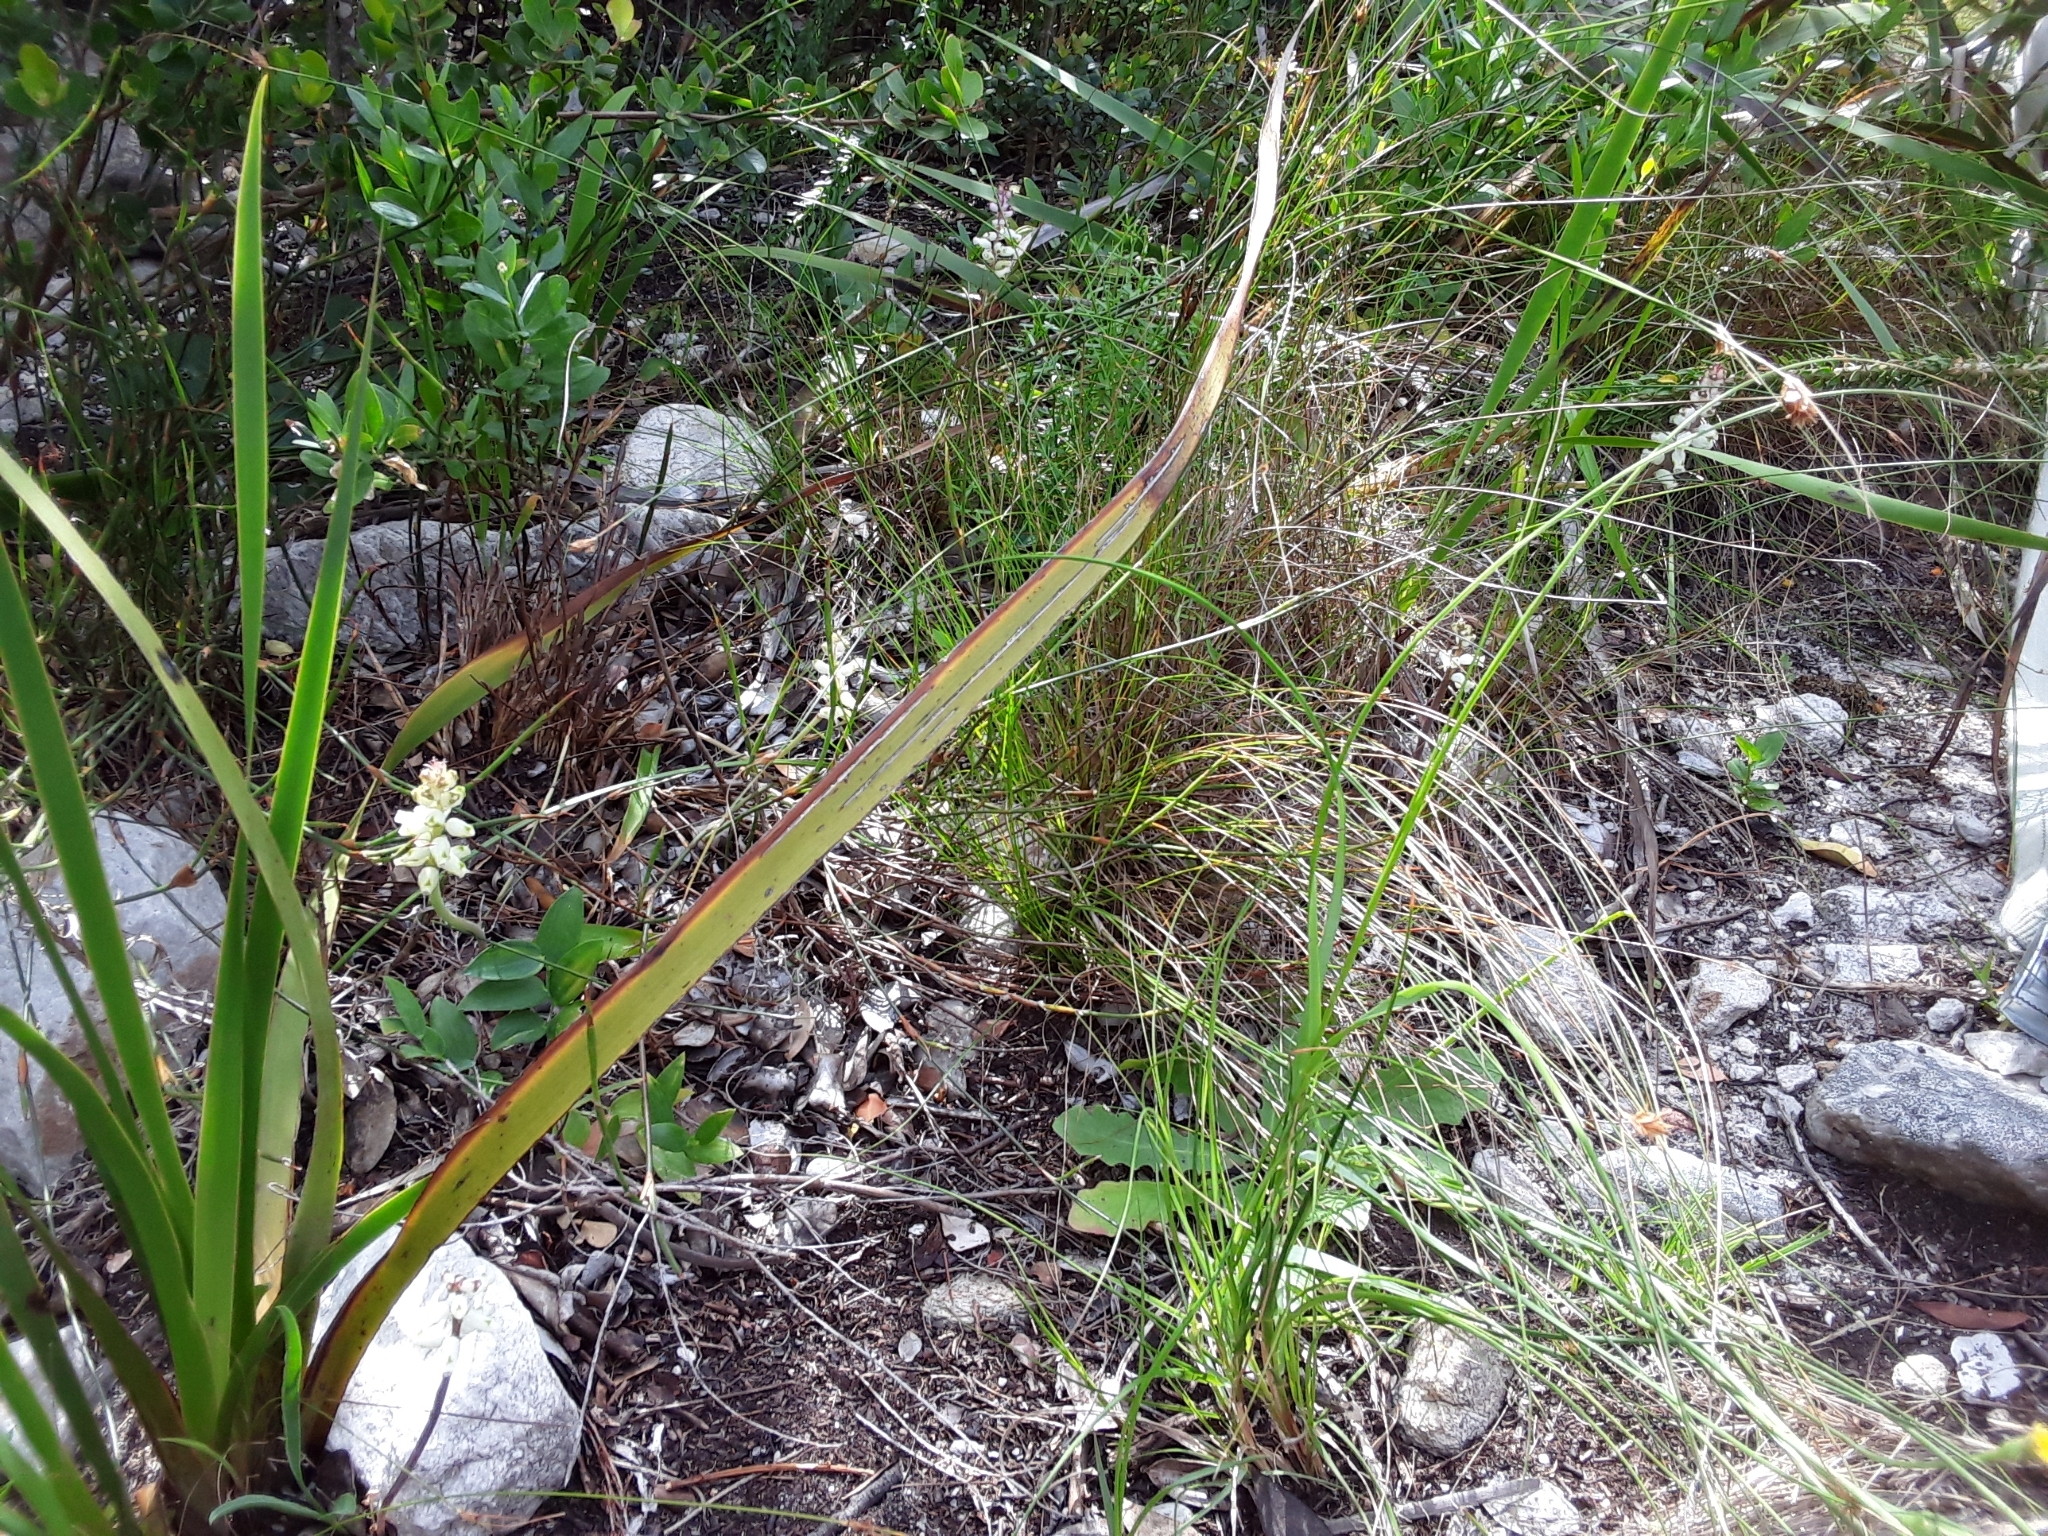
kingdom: Plantae
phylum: Tracheophyta
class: Liliopsida
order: Asparagales
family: Asparagaceae
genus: Lachenalia
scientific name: Lachenalia peersii
